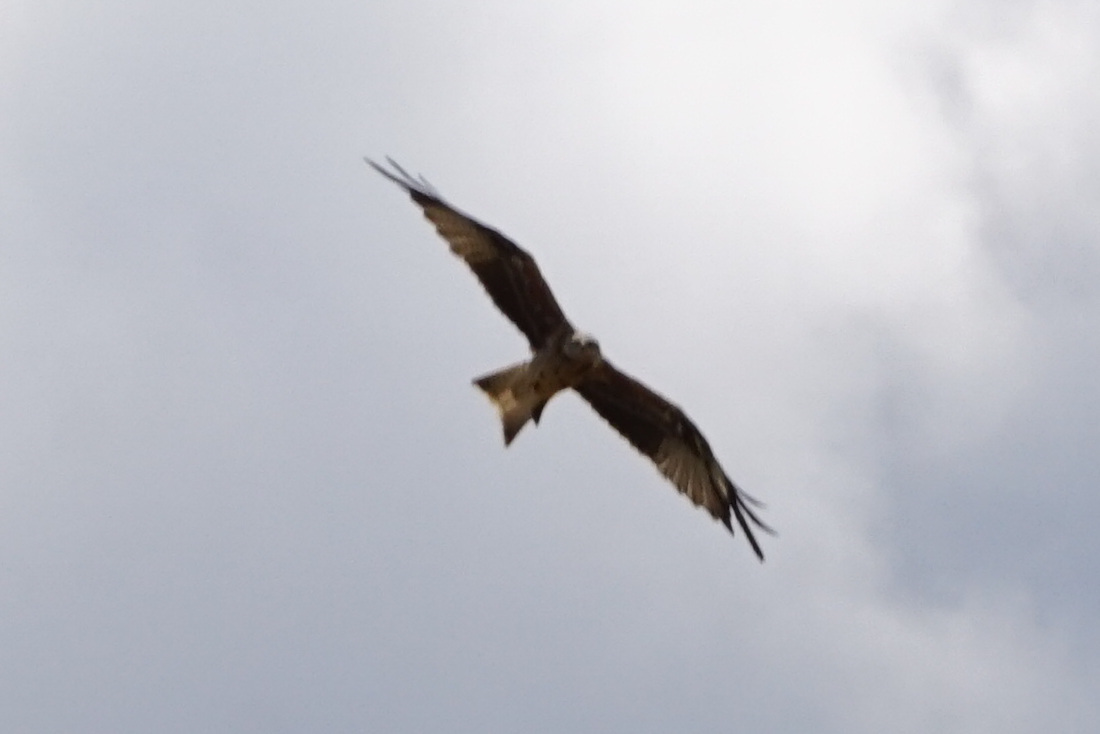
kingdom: Animalia
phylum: Chordata
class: Aves
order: Accipitriformes
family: Accipitridae
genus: Milvus
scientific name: Milvus milvus
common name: Red kite
